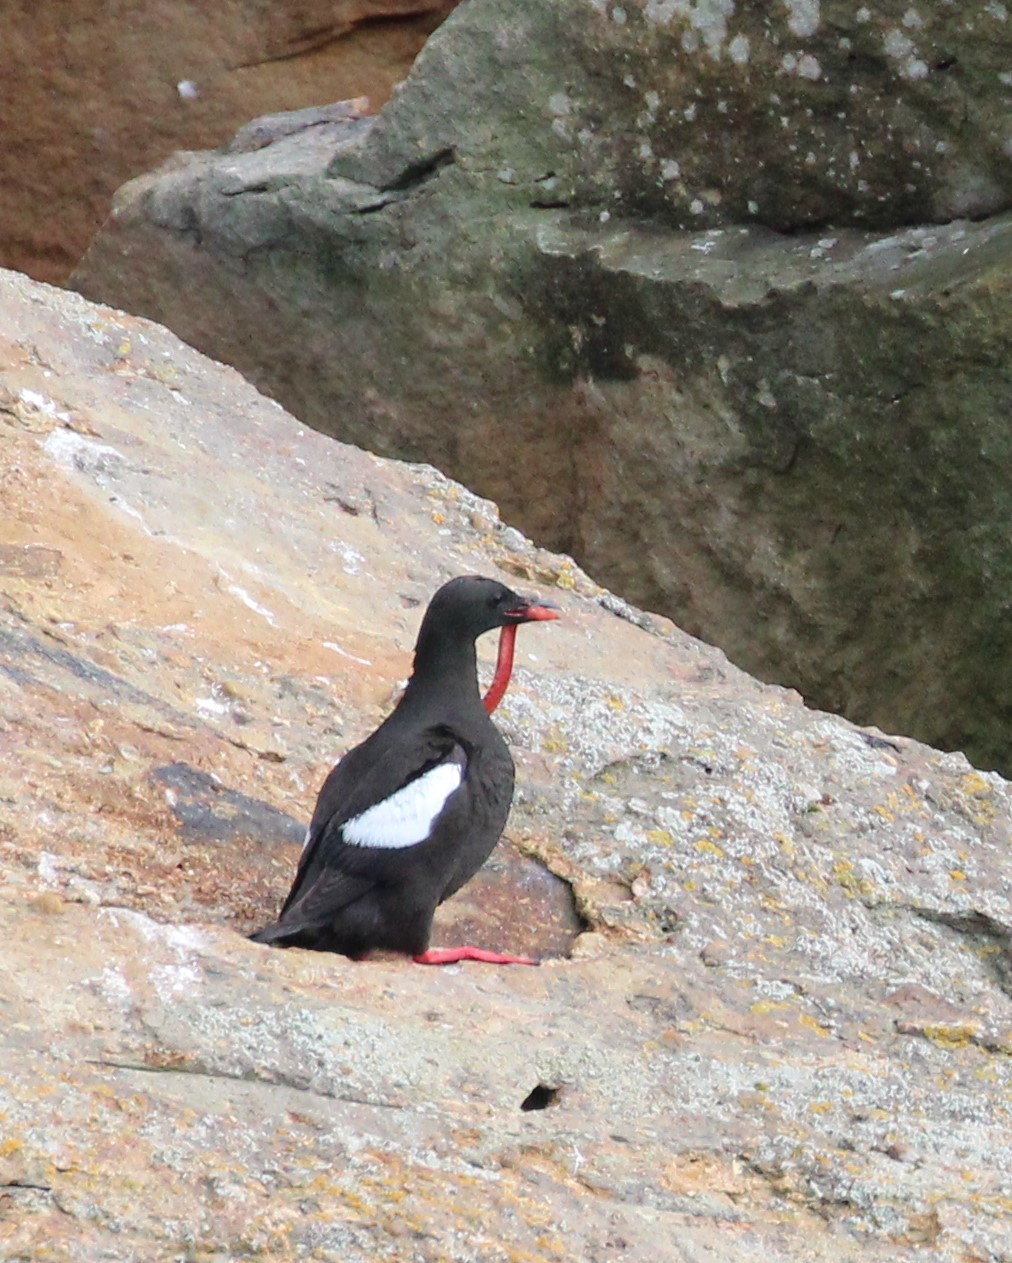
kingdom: Animalia
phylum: Chordata
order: Perciformes
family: Pholidae
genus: Pholis
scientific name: Pholis gunnellus
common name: Butterfish
